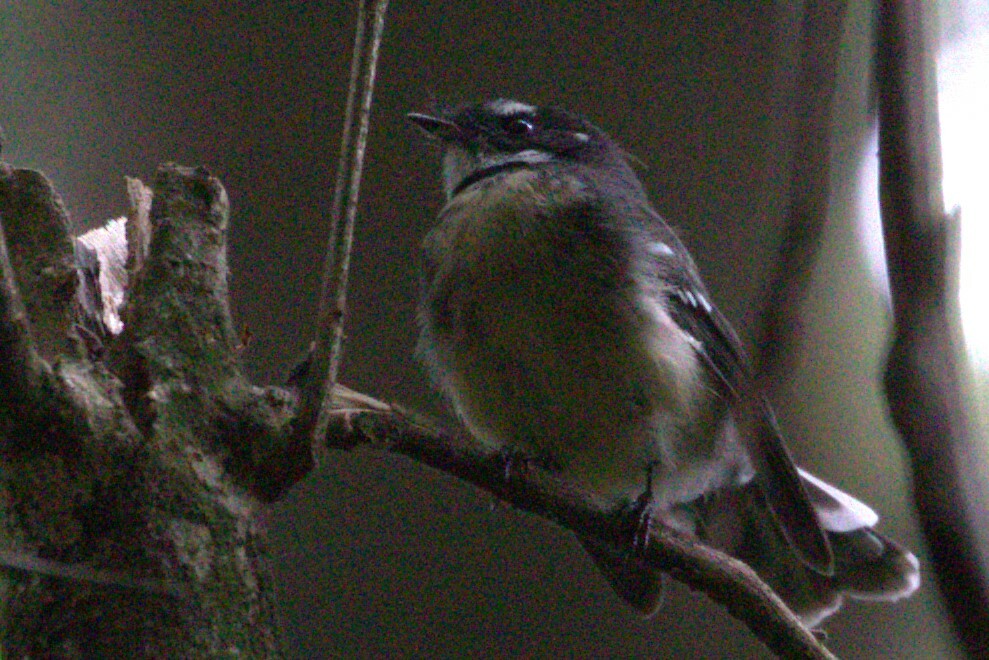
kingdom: Animalia
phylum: Chordata
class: Aves
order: Passeriformes
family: Rhipiduridae
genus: Rhipidura
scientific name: Rhipidura albiscapa
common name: Grey fantail
